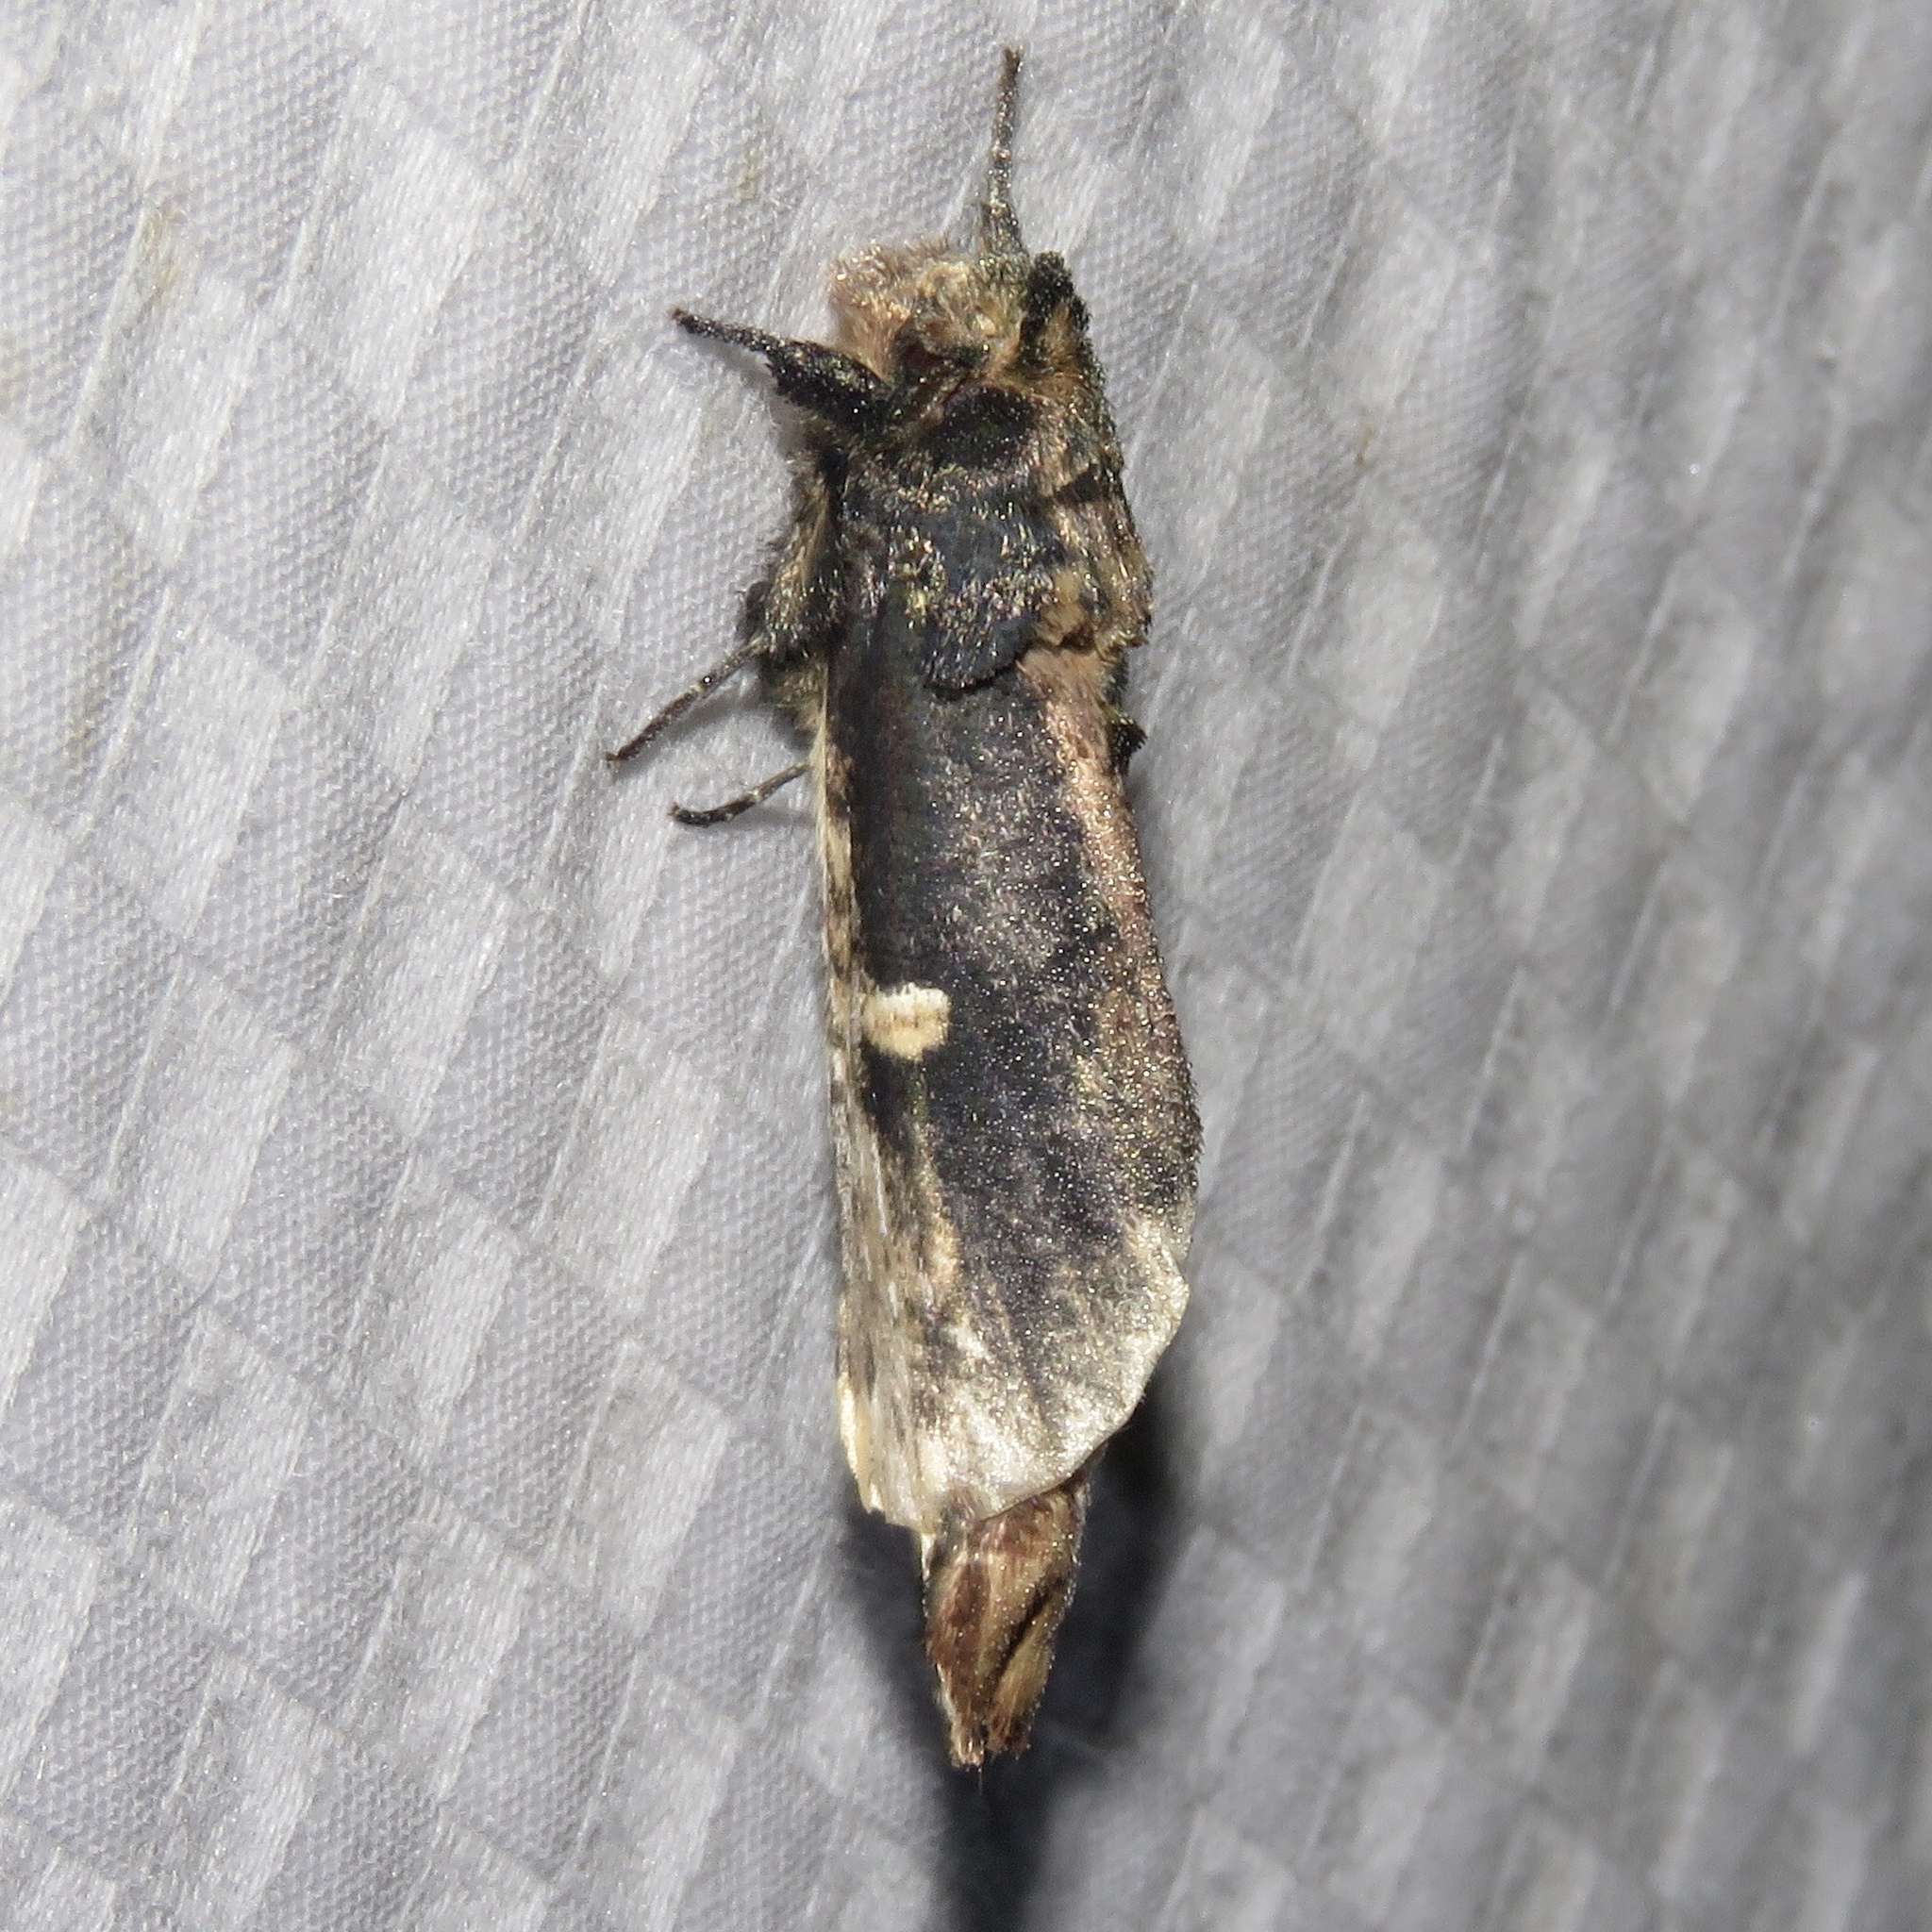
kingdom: Animalia
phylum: Arthropoda
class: Insecta
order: Lepidoptera
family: Notodontidae
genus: Schizura
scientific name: Schizura ipomaeae
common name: Morning-glory prominent
